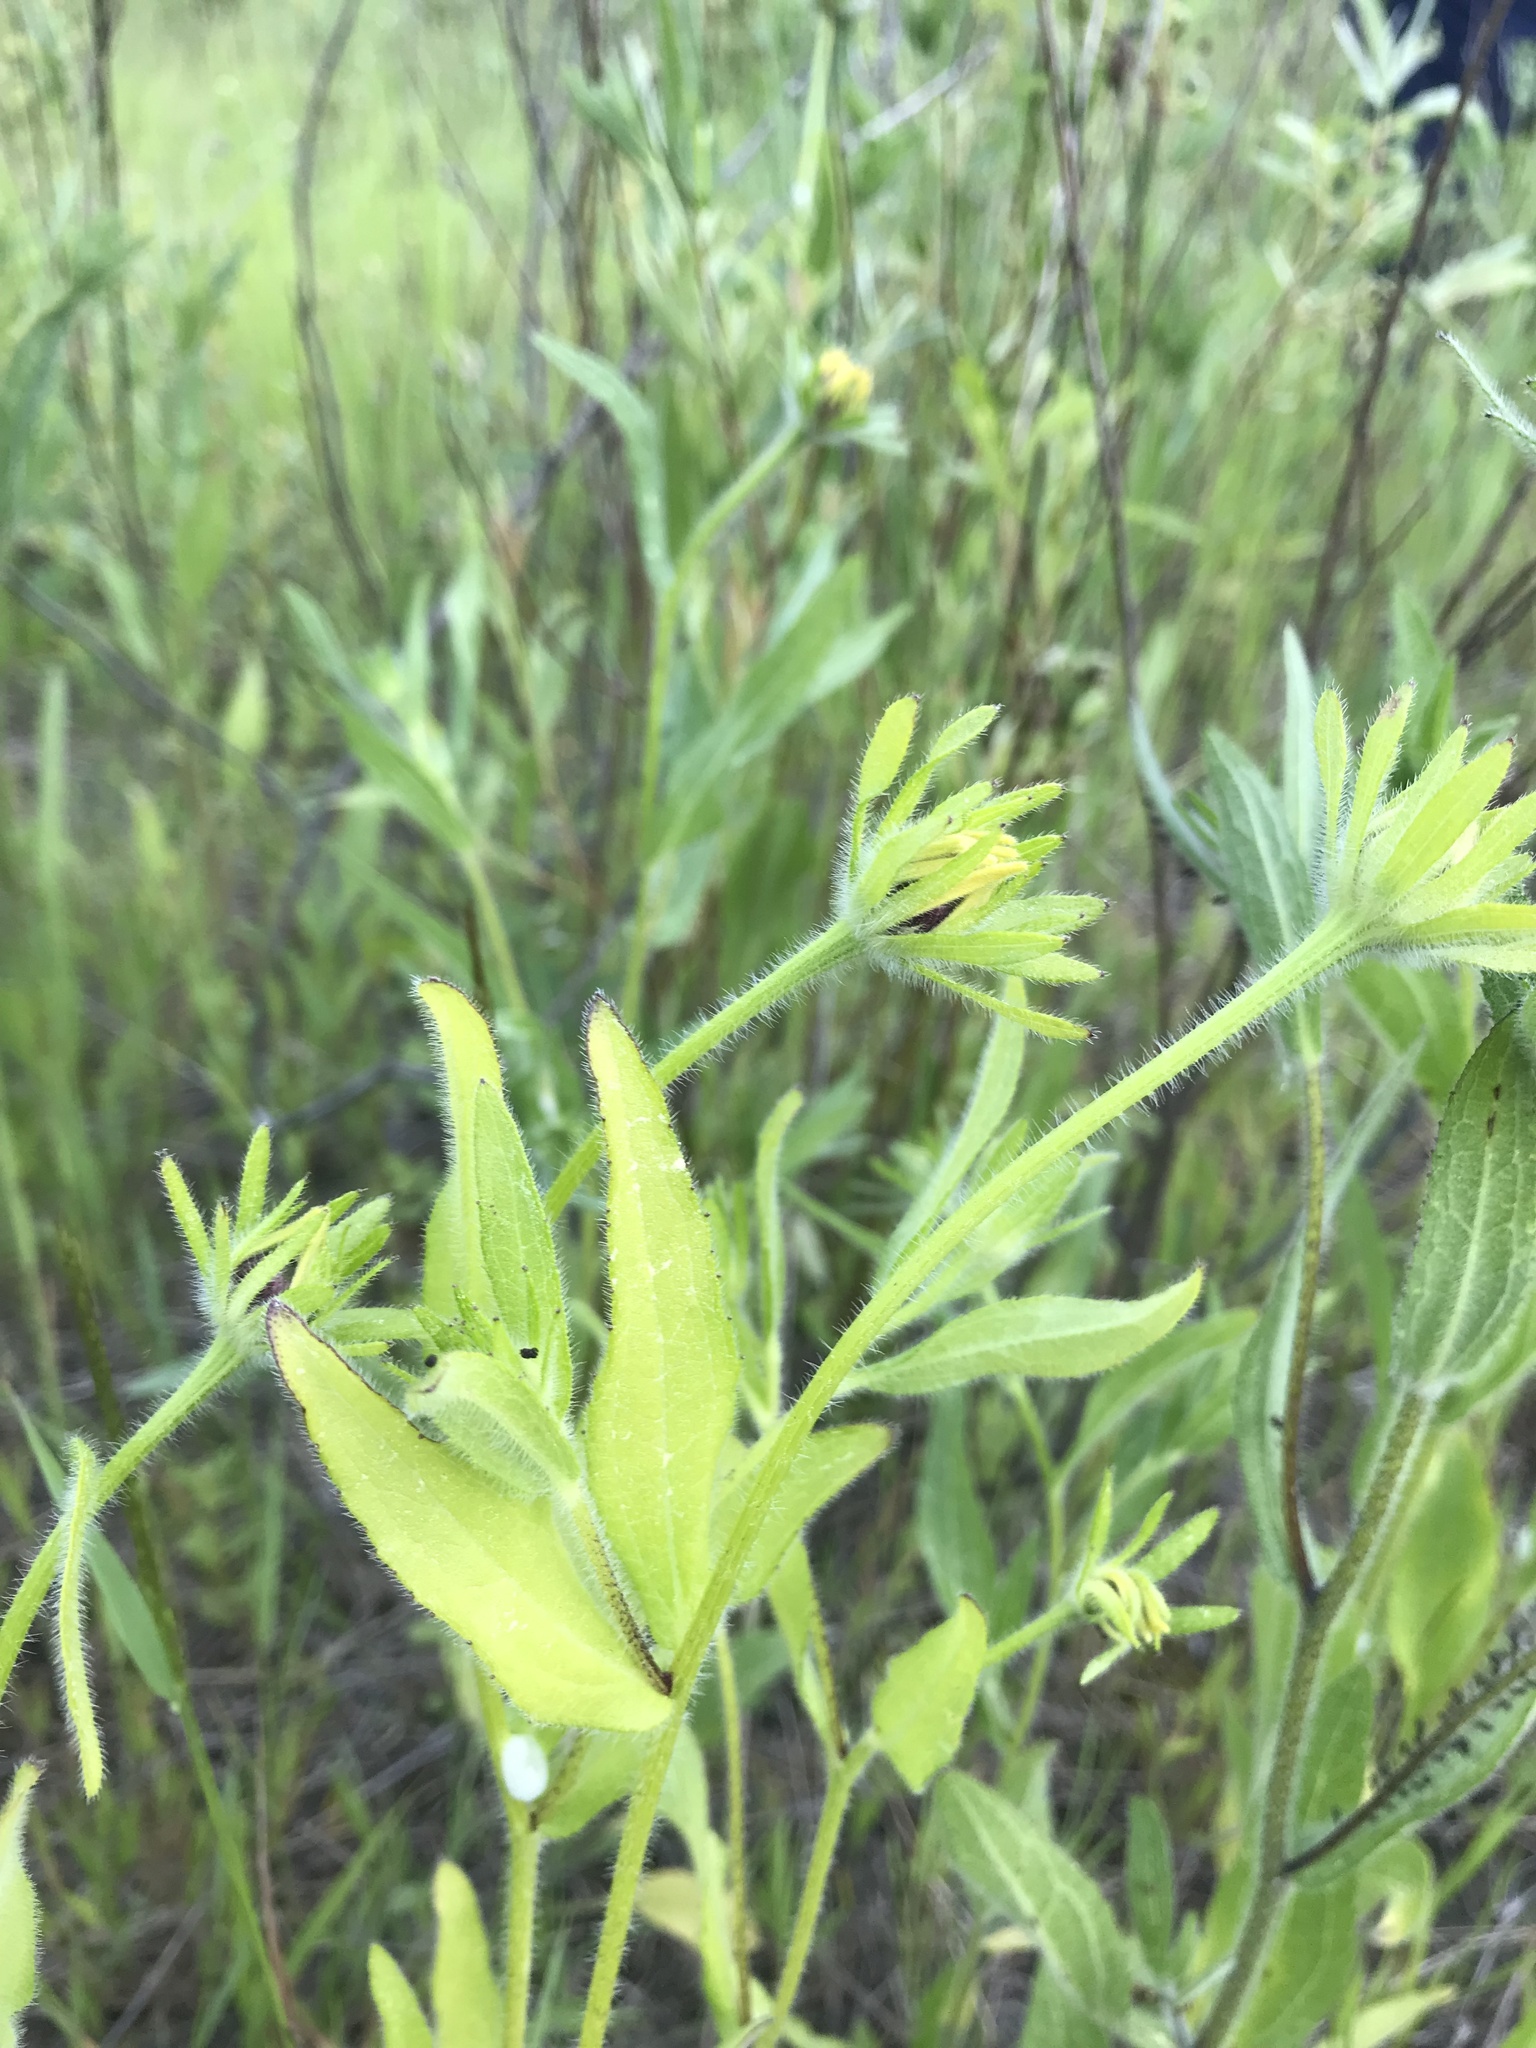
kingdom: Plantae
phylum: Tracheophyta
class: Magnoliopsida
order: Asterales
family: Asteraceae
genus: Rudbeckia
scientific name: Rudbeckia hirta
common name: Black-eyed-susan
